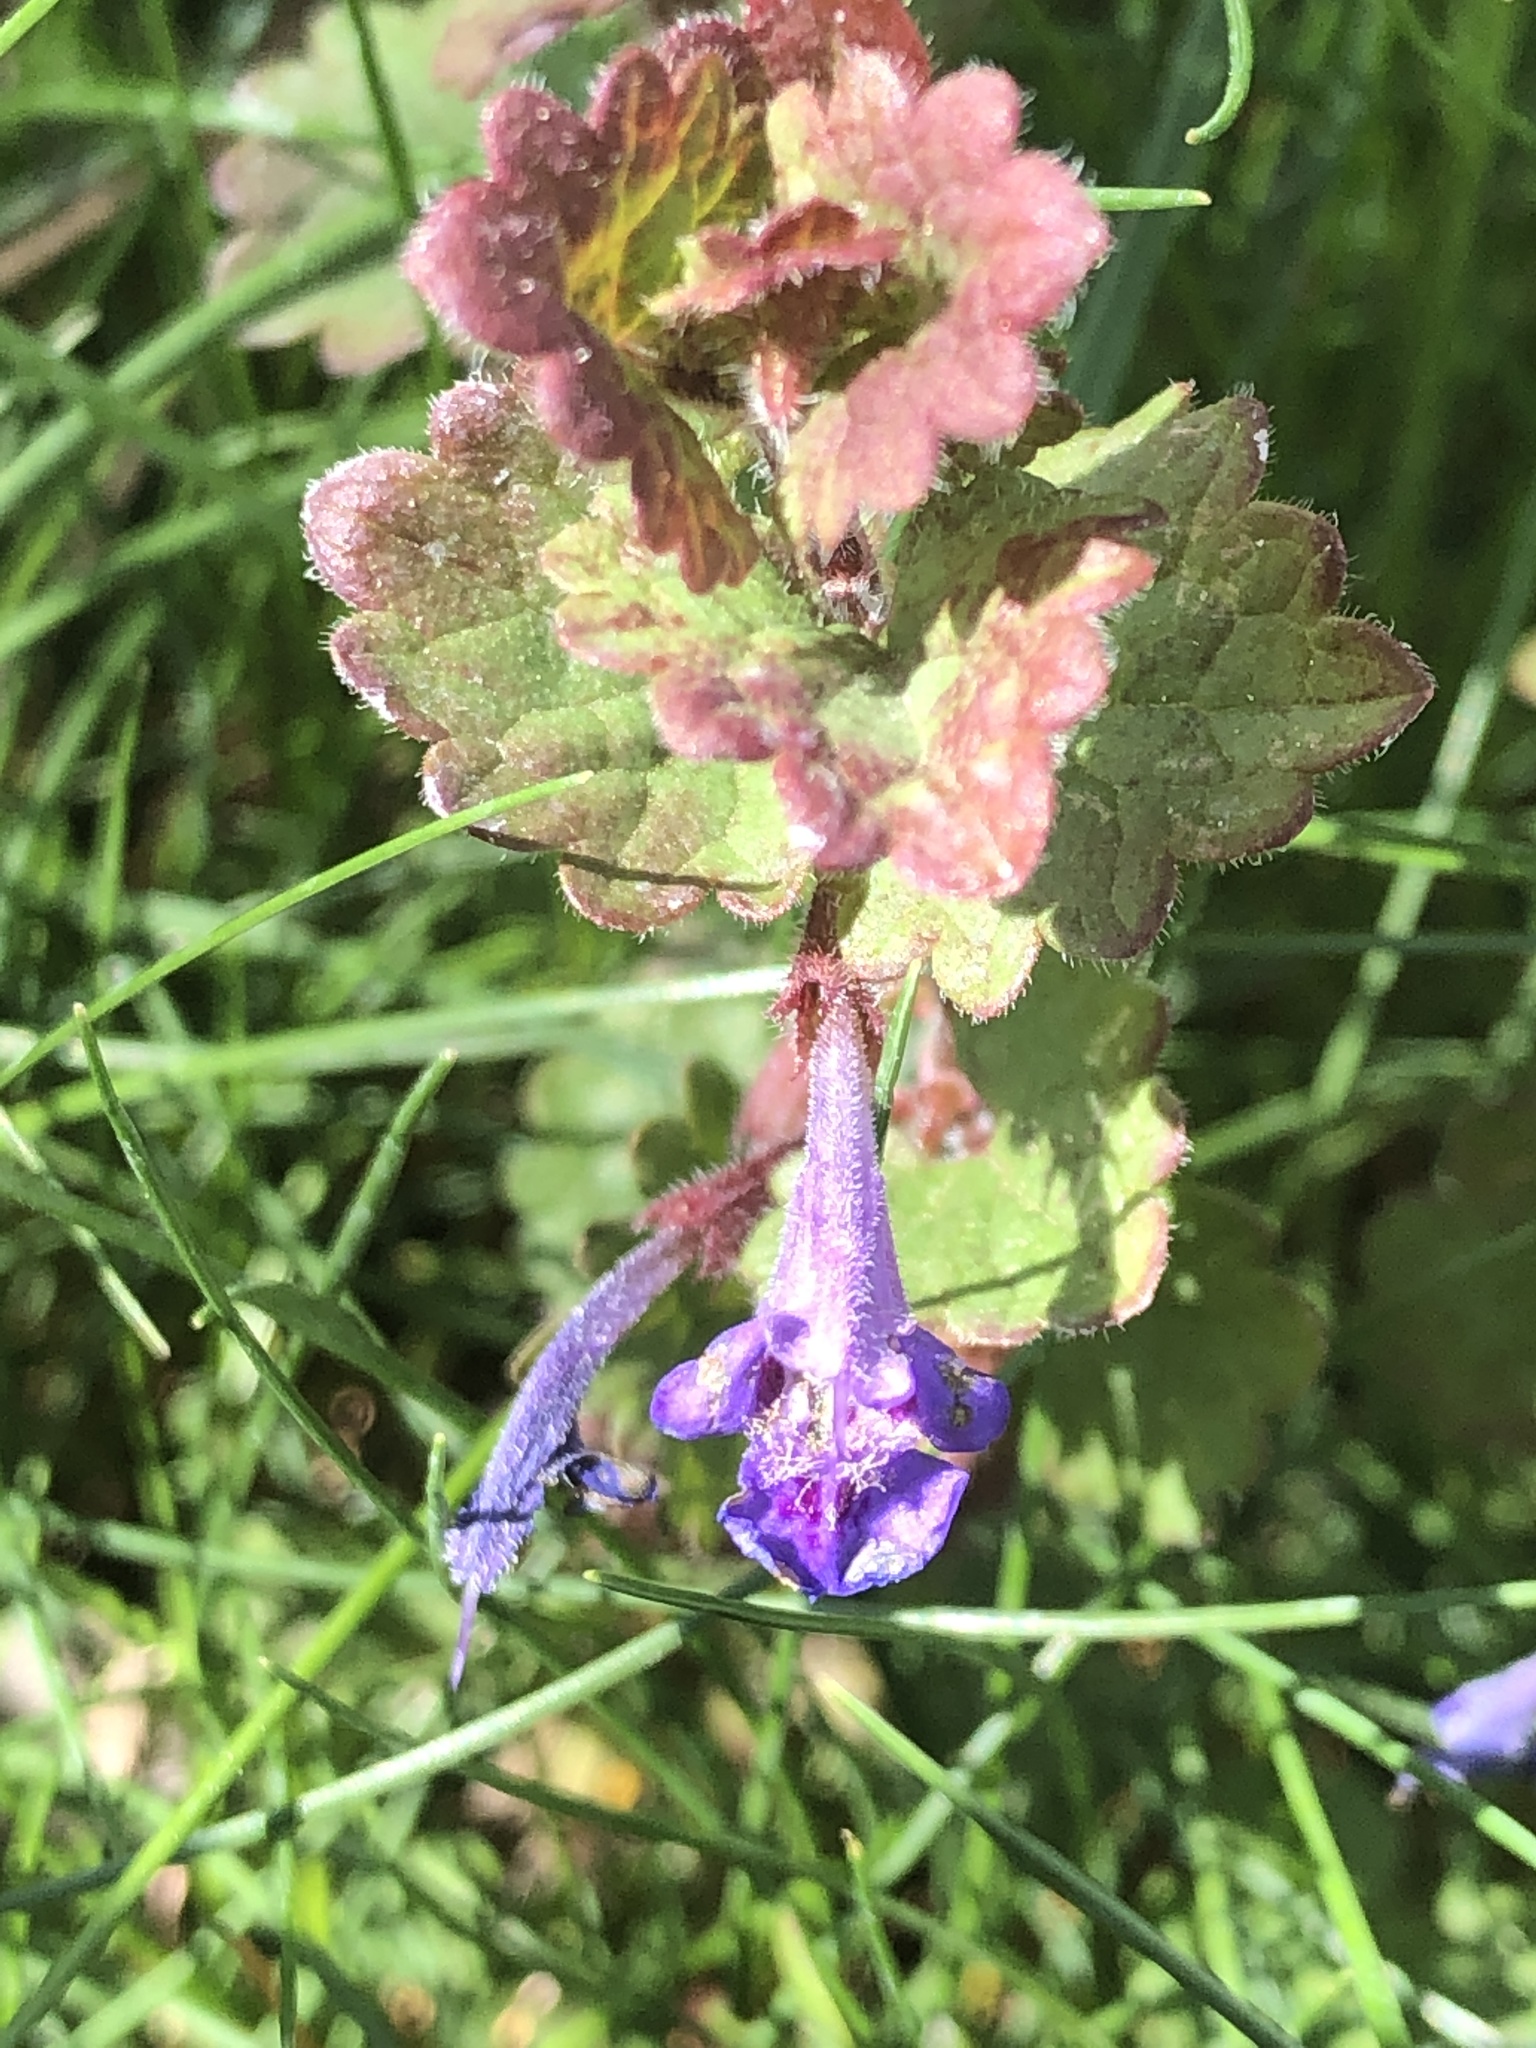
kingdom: Plantae
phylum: Tracheophyta
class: Magnoliopsida
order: Lamiales
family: Lamiaceae
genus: Glechoma
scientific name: Glechoma hederacea
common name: Ground ivy
